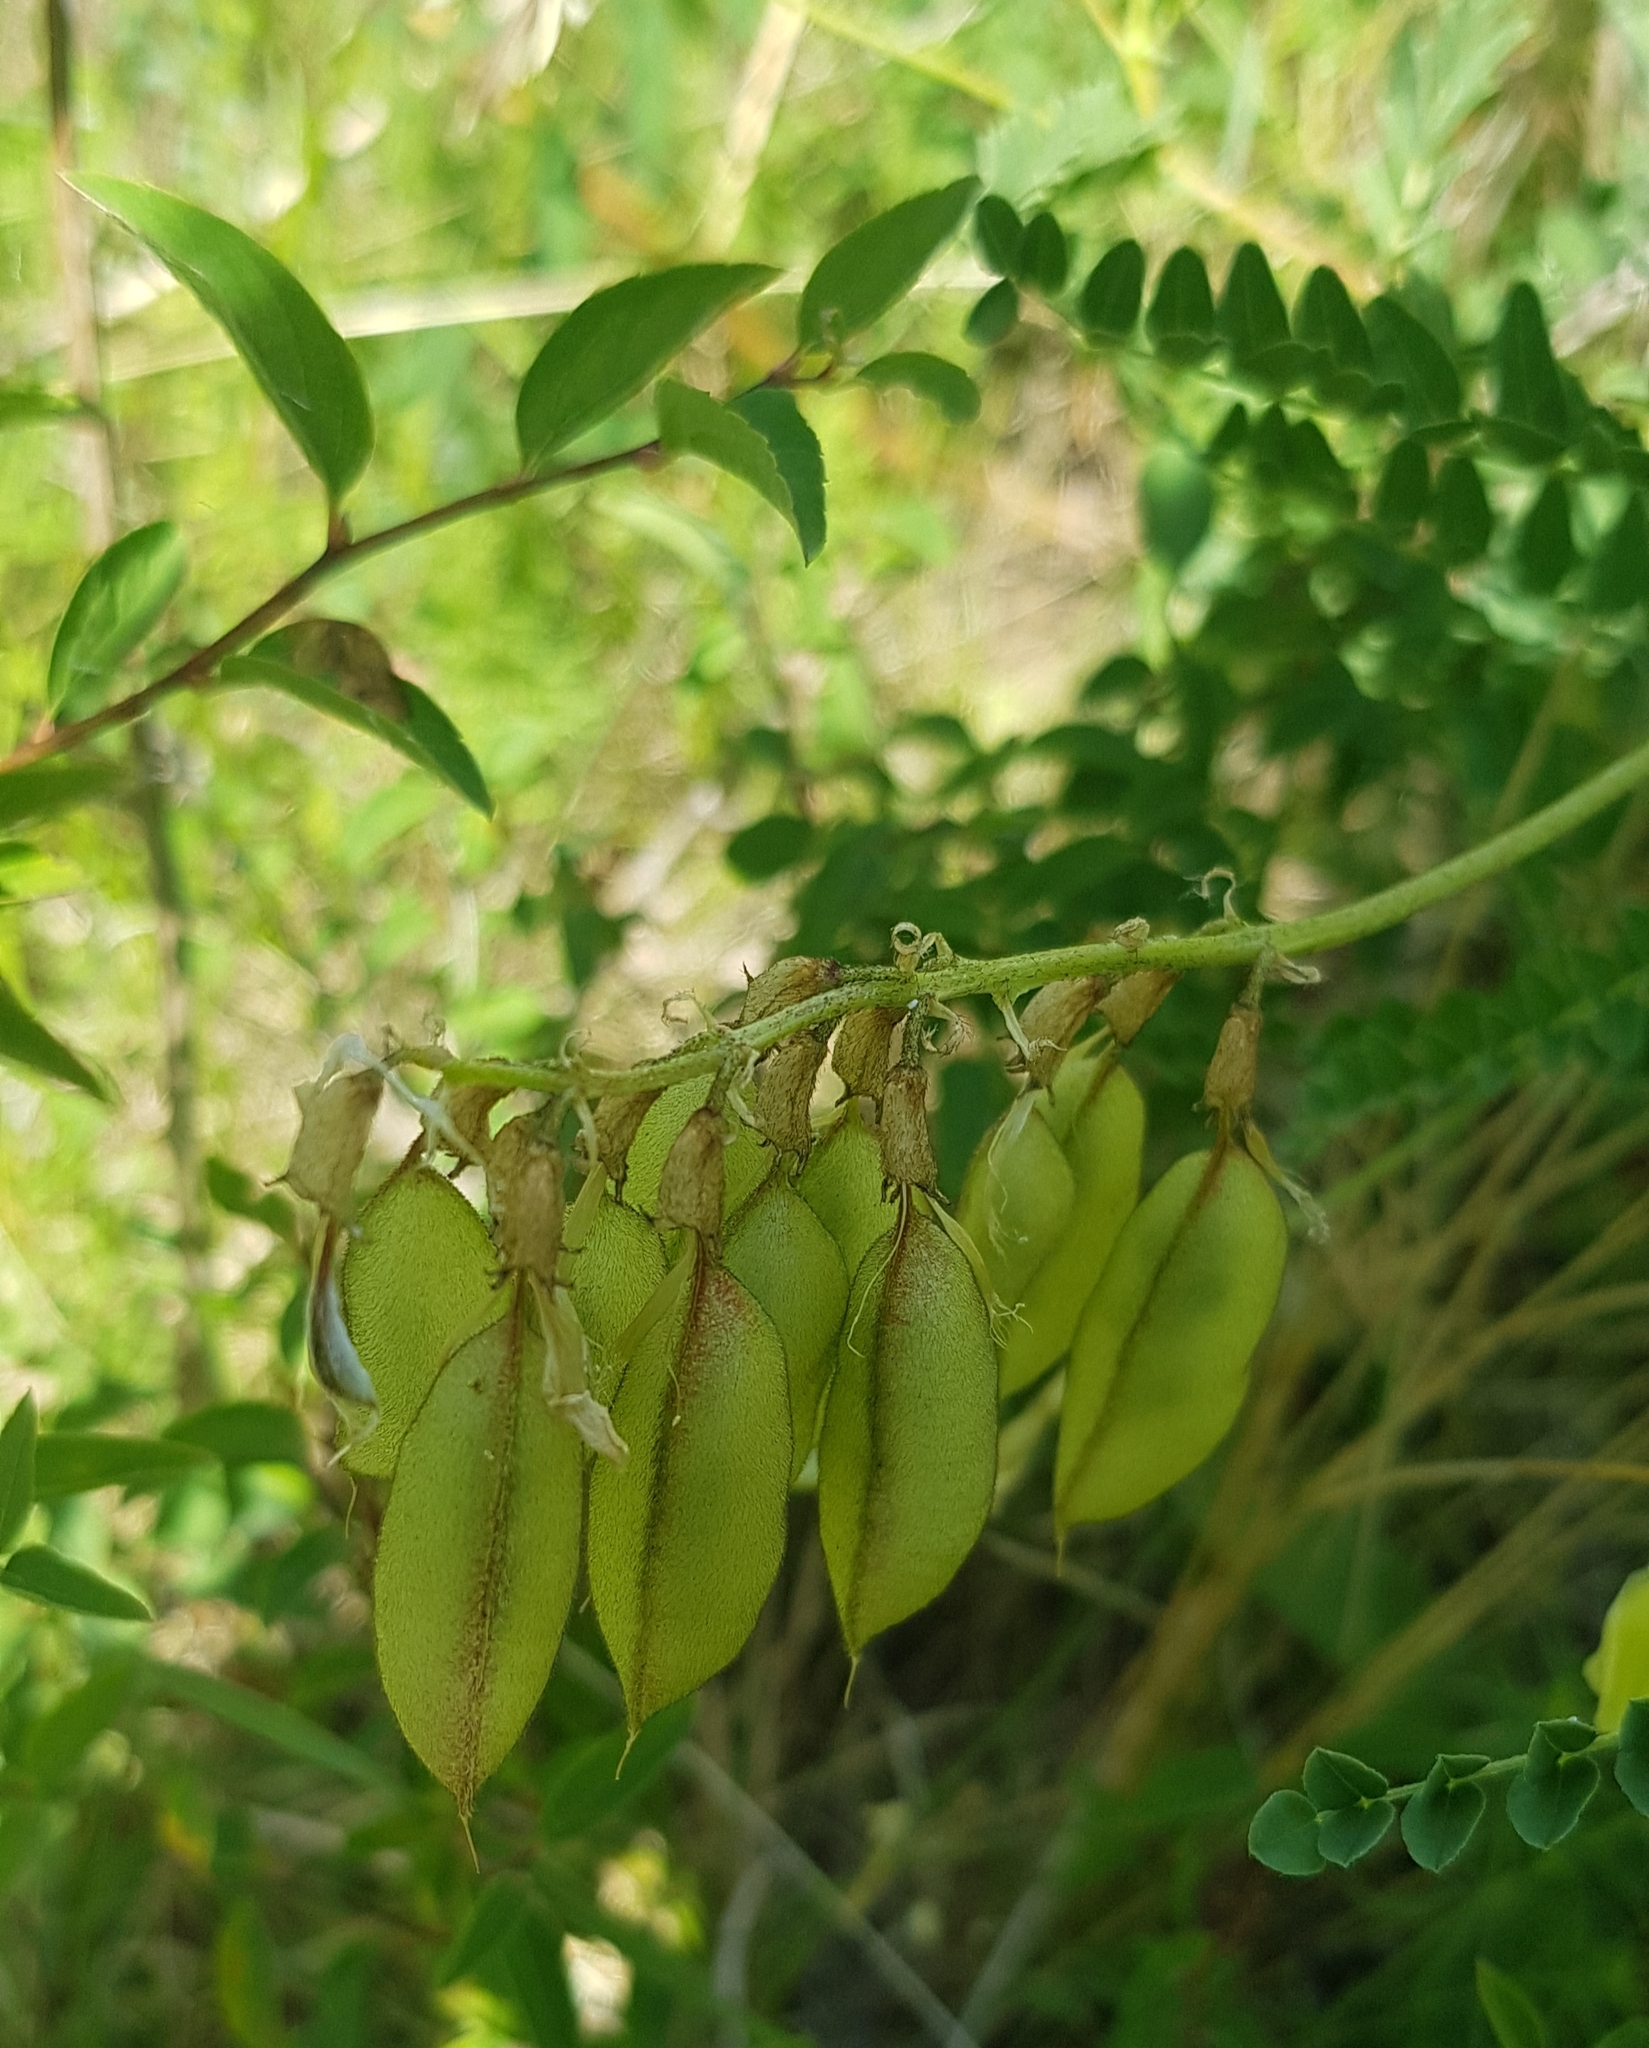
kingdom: Plantae
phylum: Tracheophyta
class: Magnoliopsida
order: Fabales
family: Fabaceae
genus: Astragalus
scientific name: Astragalus
